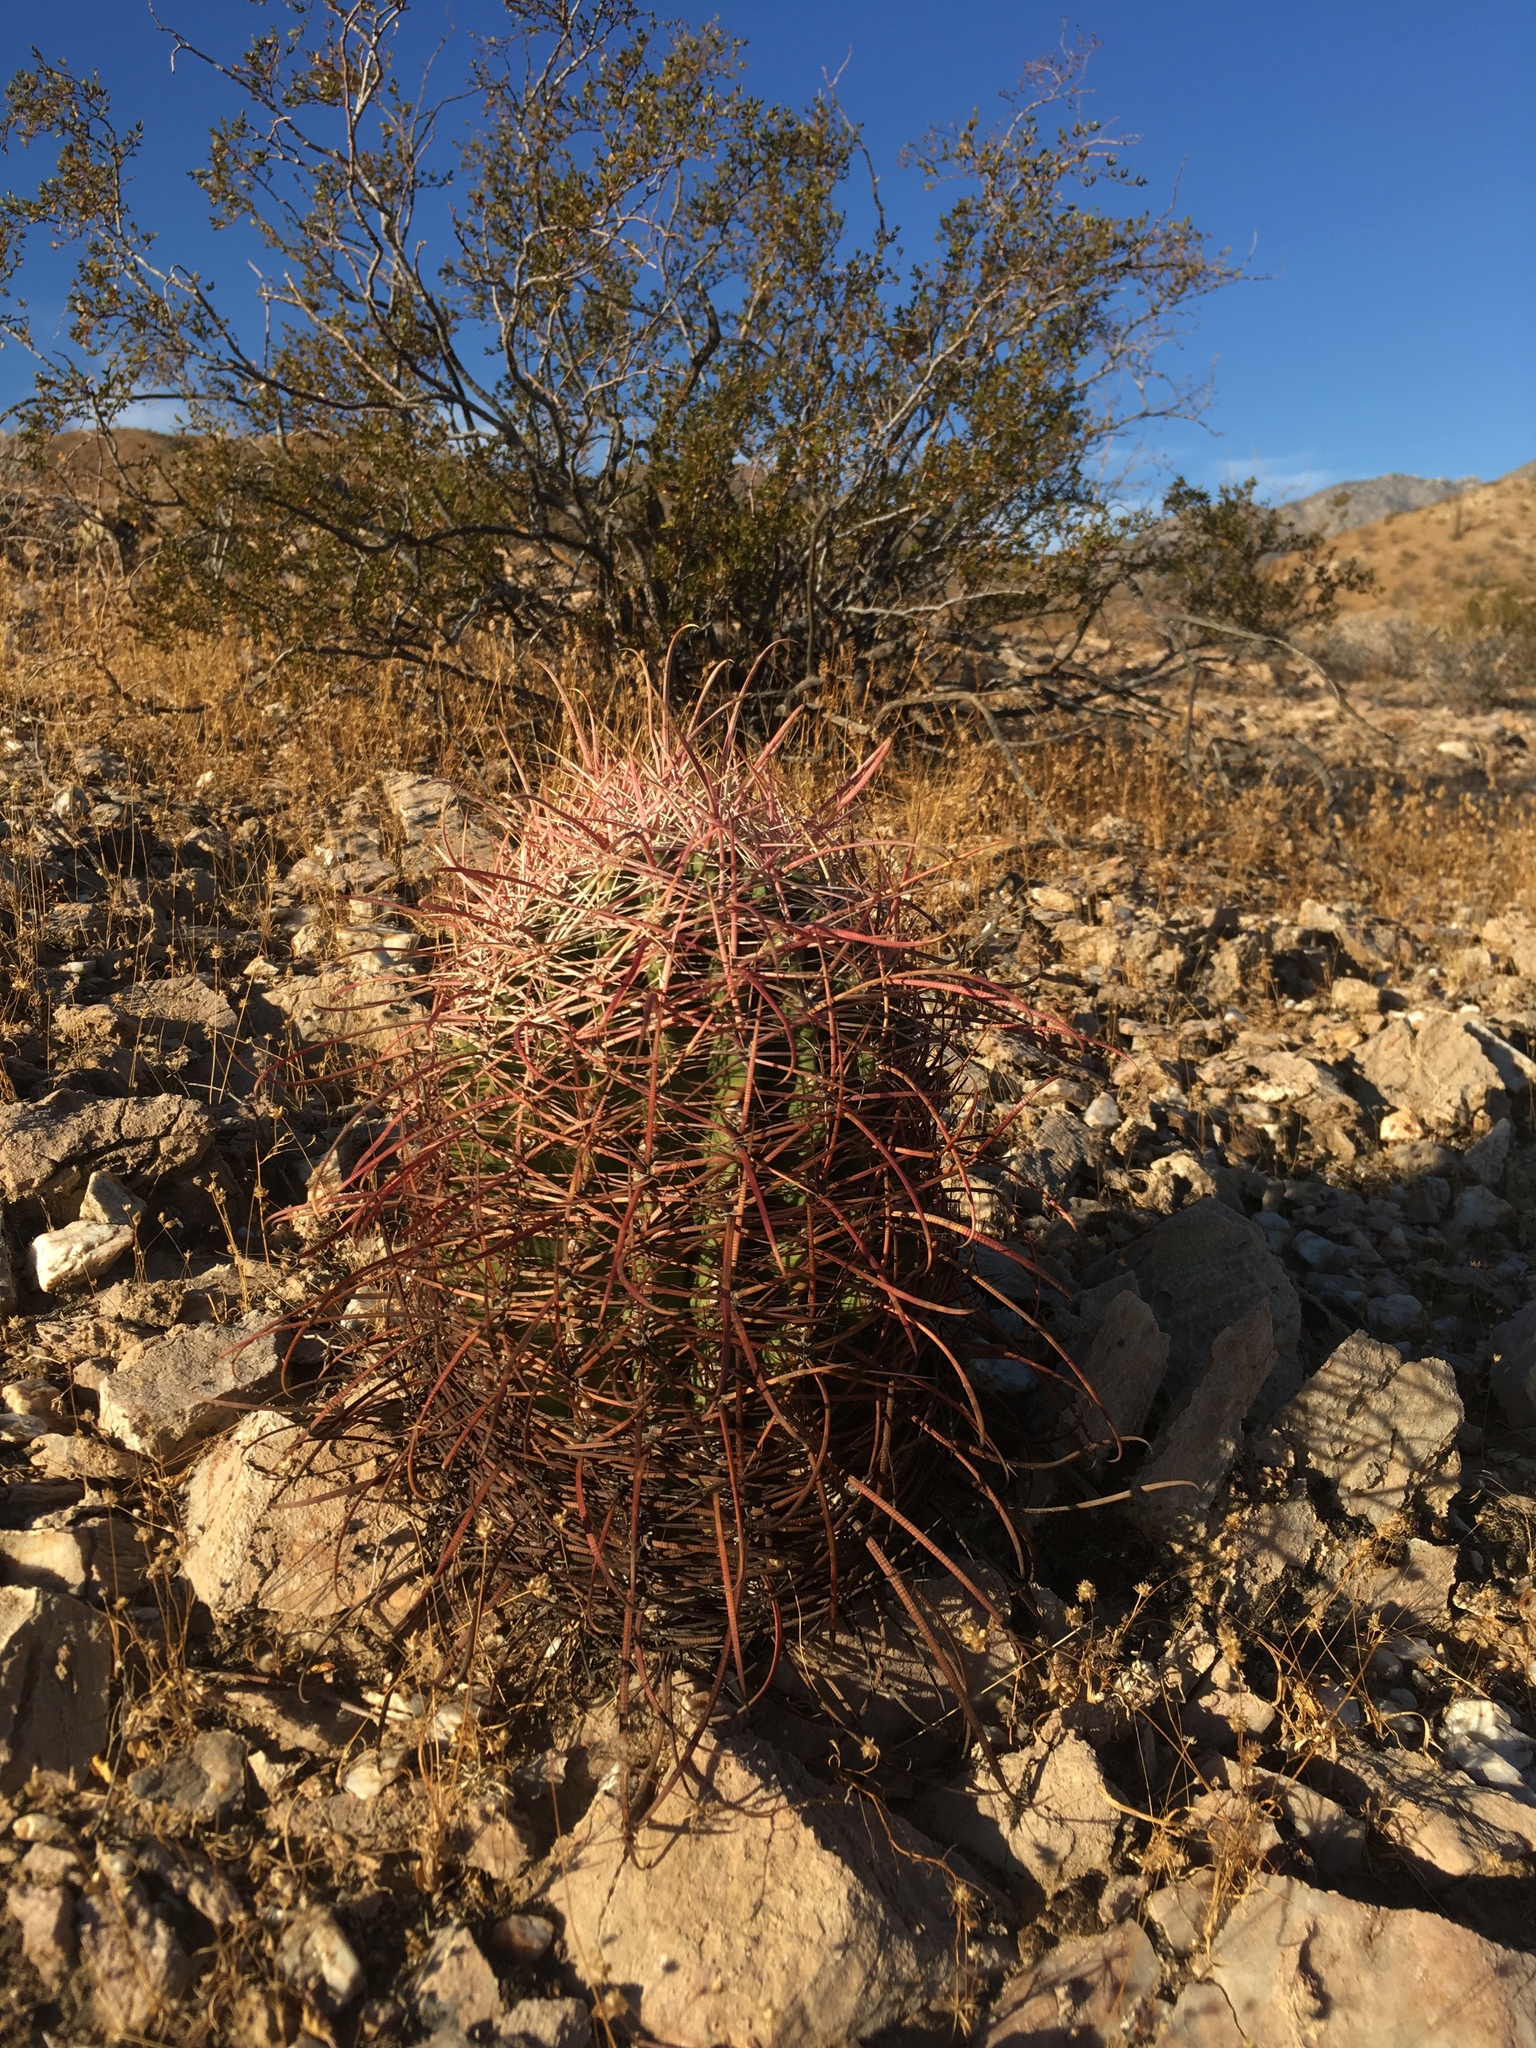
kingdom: Plantae
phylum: Tracheophyta
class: Magnoliopsida
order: Caryophyllales
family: Cactaceae
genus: Ferocactus
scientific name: Ferocactus cylindraceus
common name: California barrel cactus
